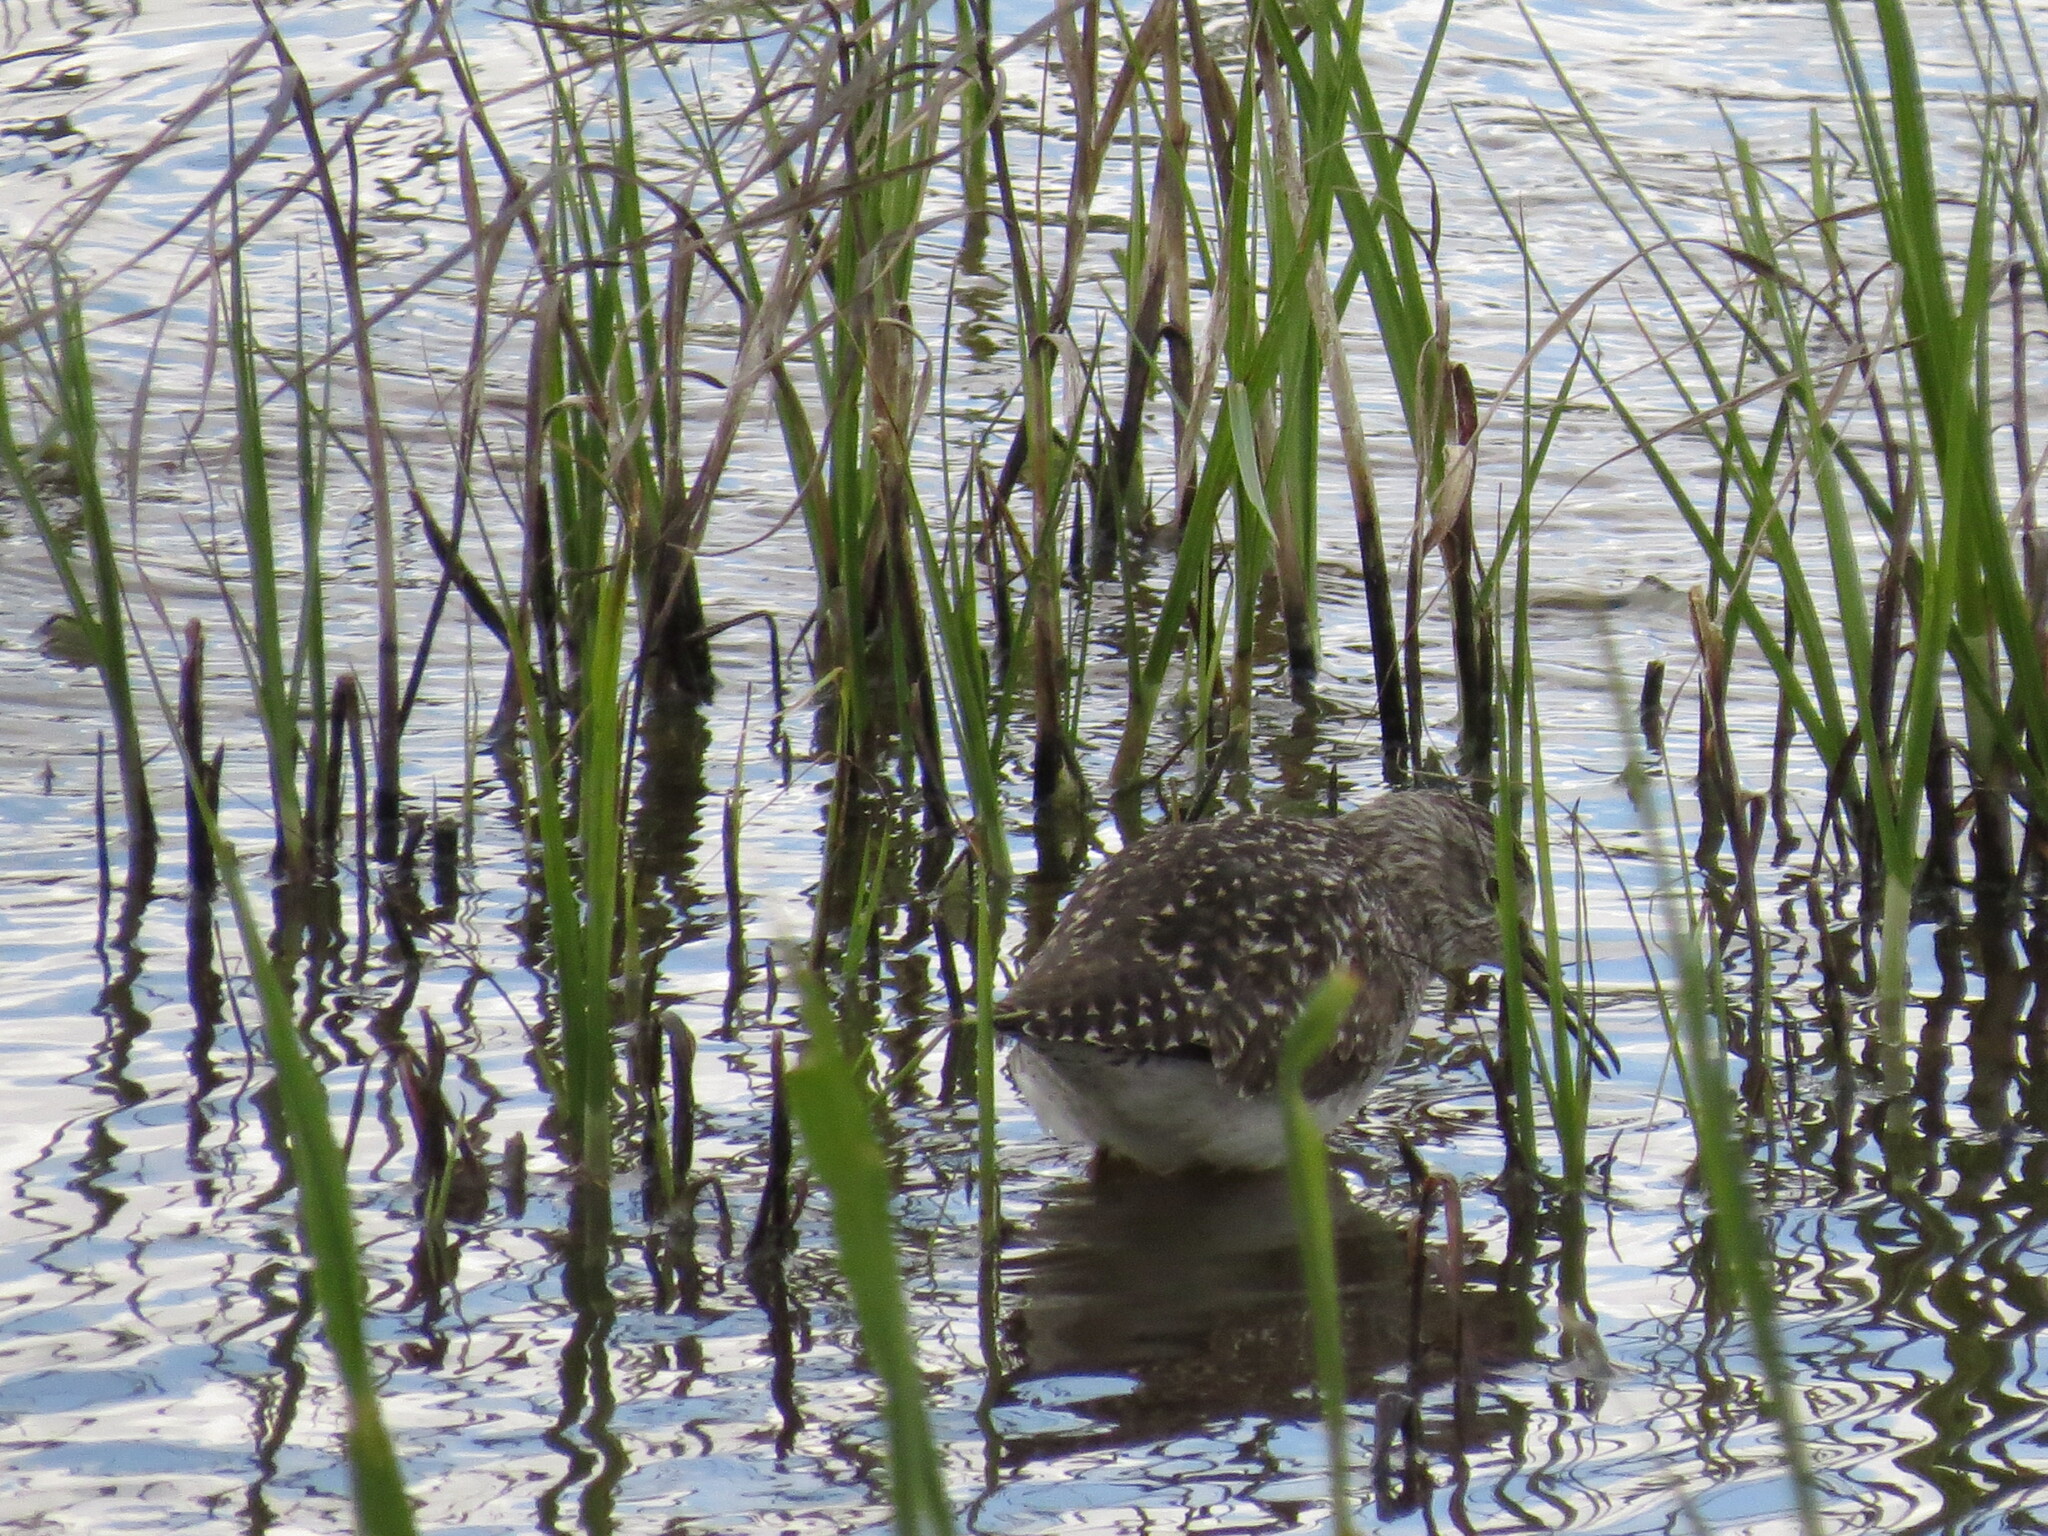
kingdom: Animalia
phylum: Chordata
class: Aves
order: Charadriiformes
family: Scolopacidae
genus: Tringa
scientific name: Tringa glareola
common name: Wood sandpiper
